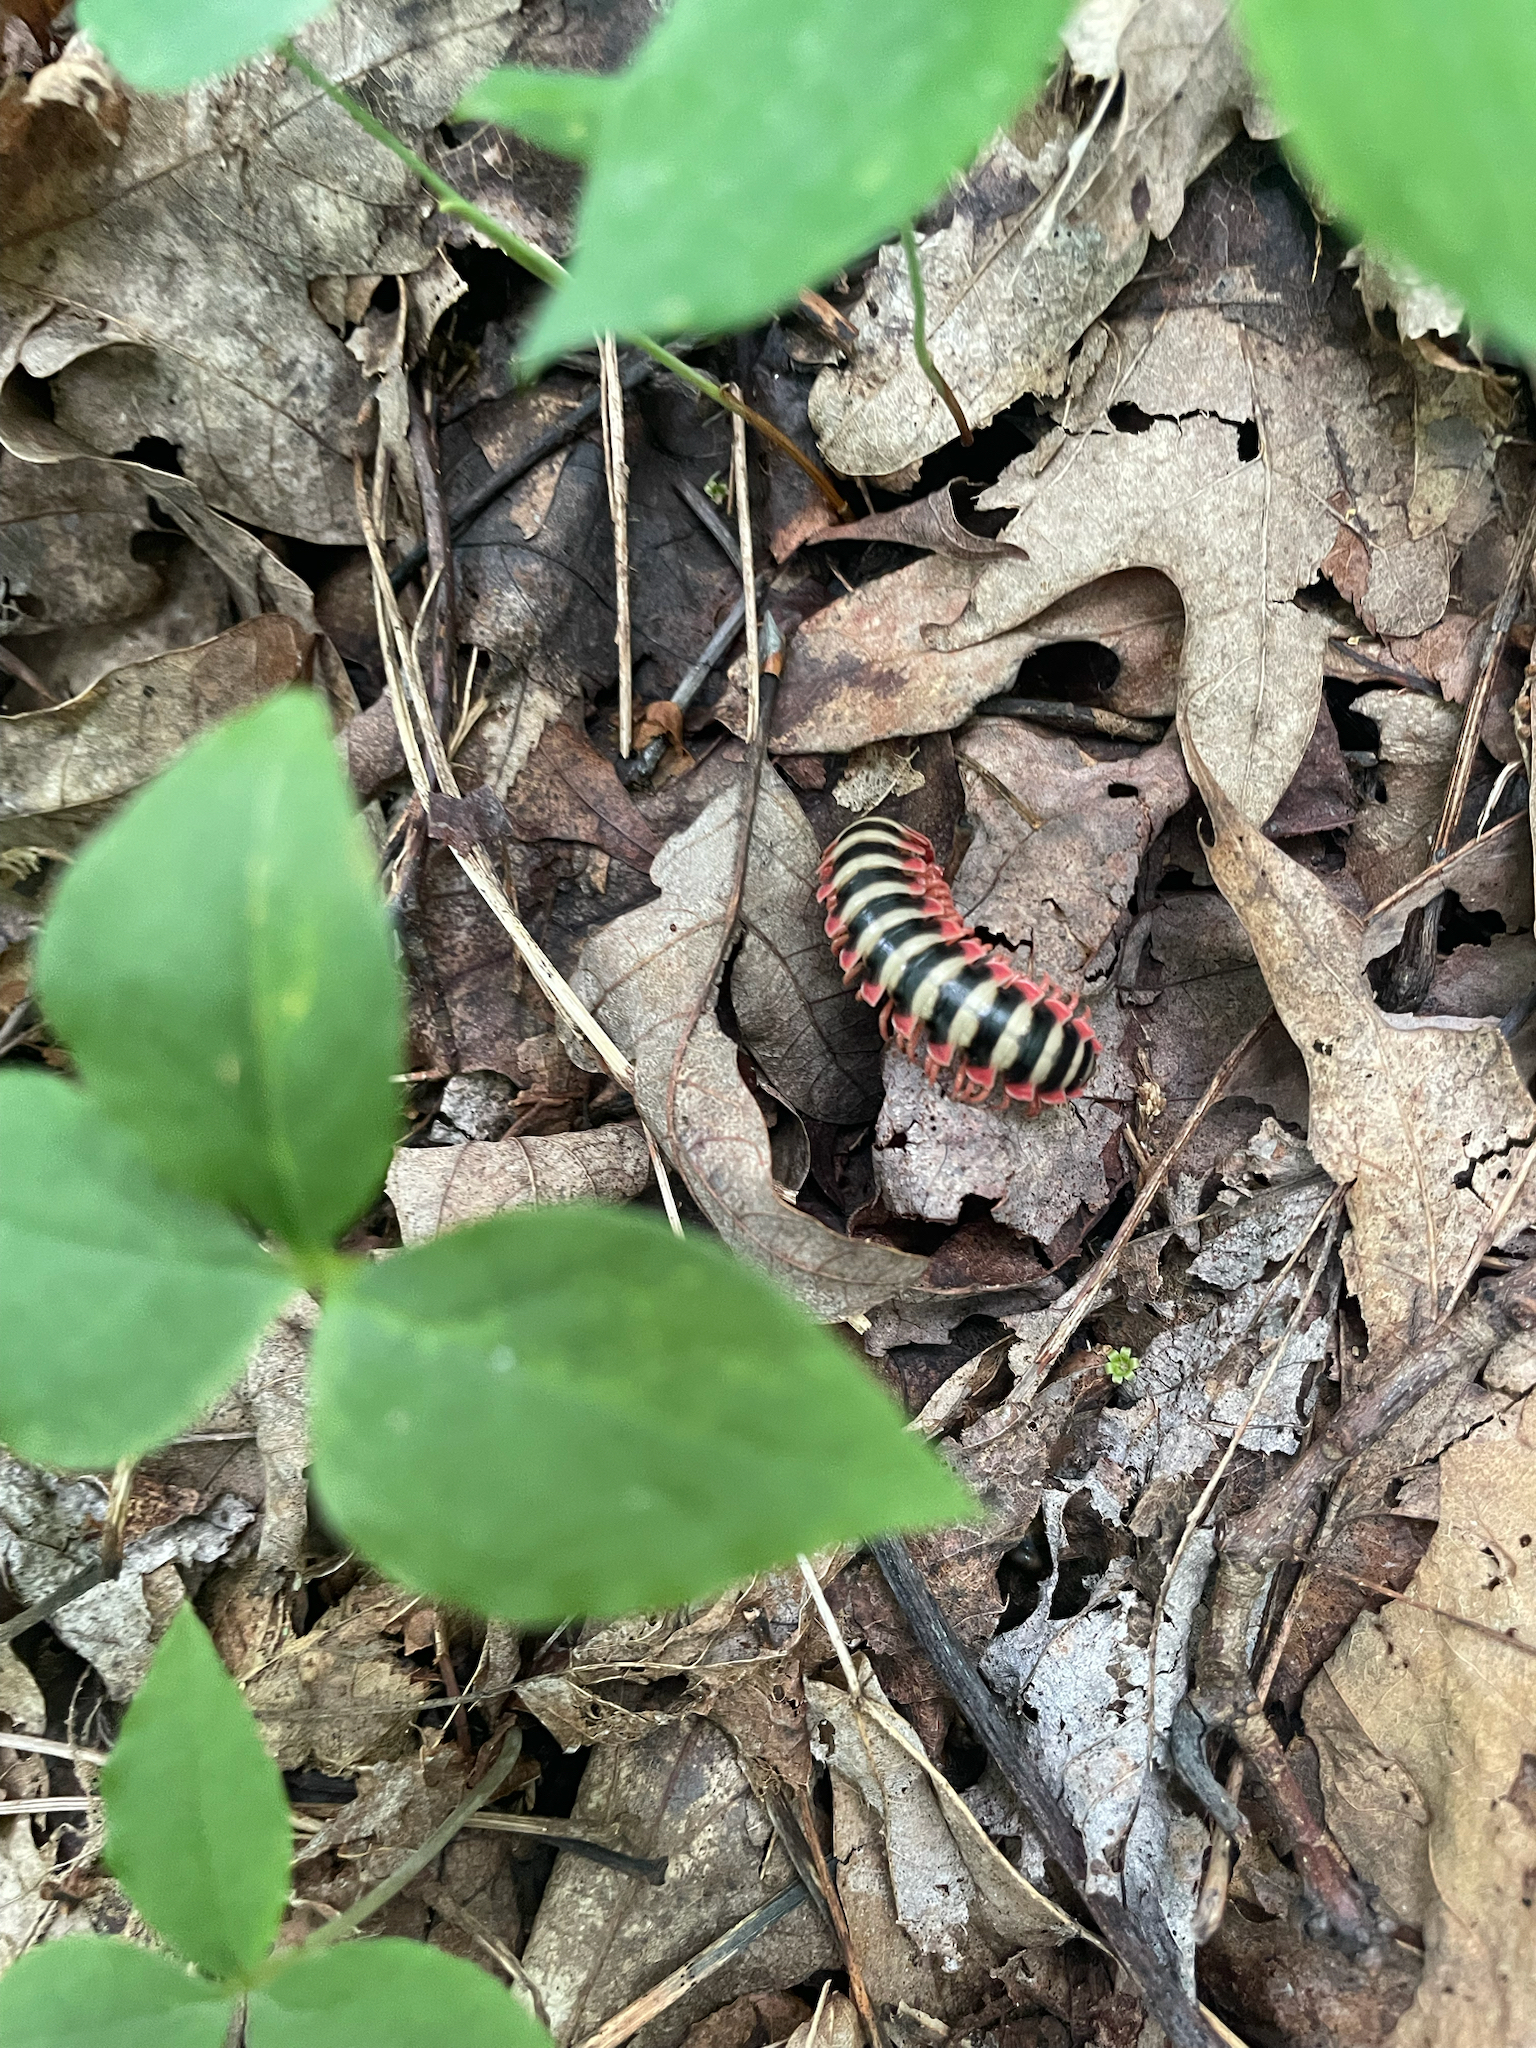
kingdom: Animalia
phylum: Arthropoda
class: Diplopoda
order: Polydesmida
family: Xystodesmidae
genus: Sigmoria
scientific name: Sigmoria nantahalae
